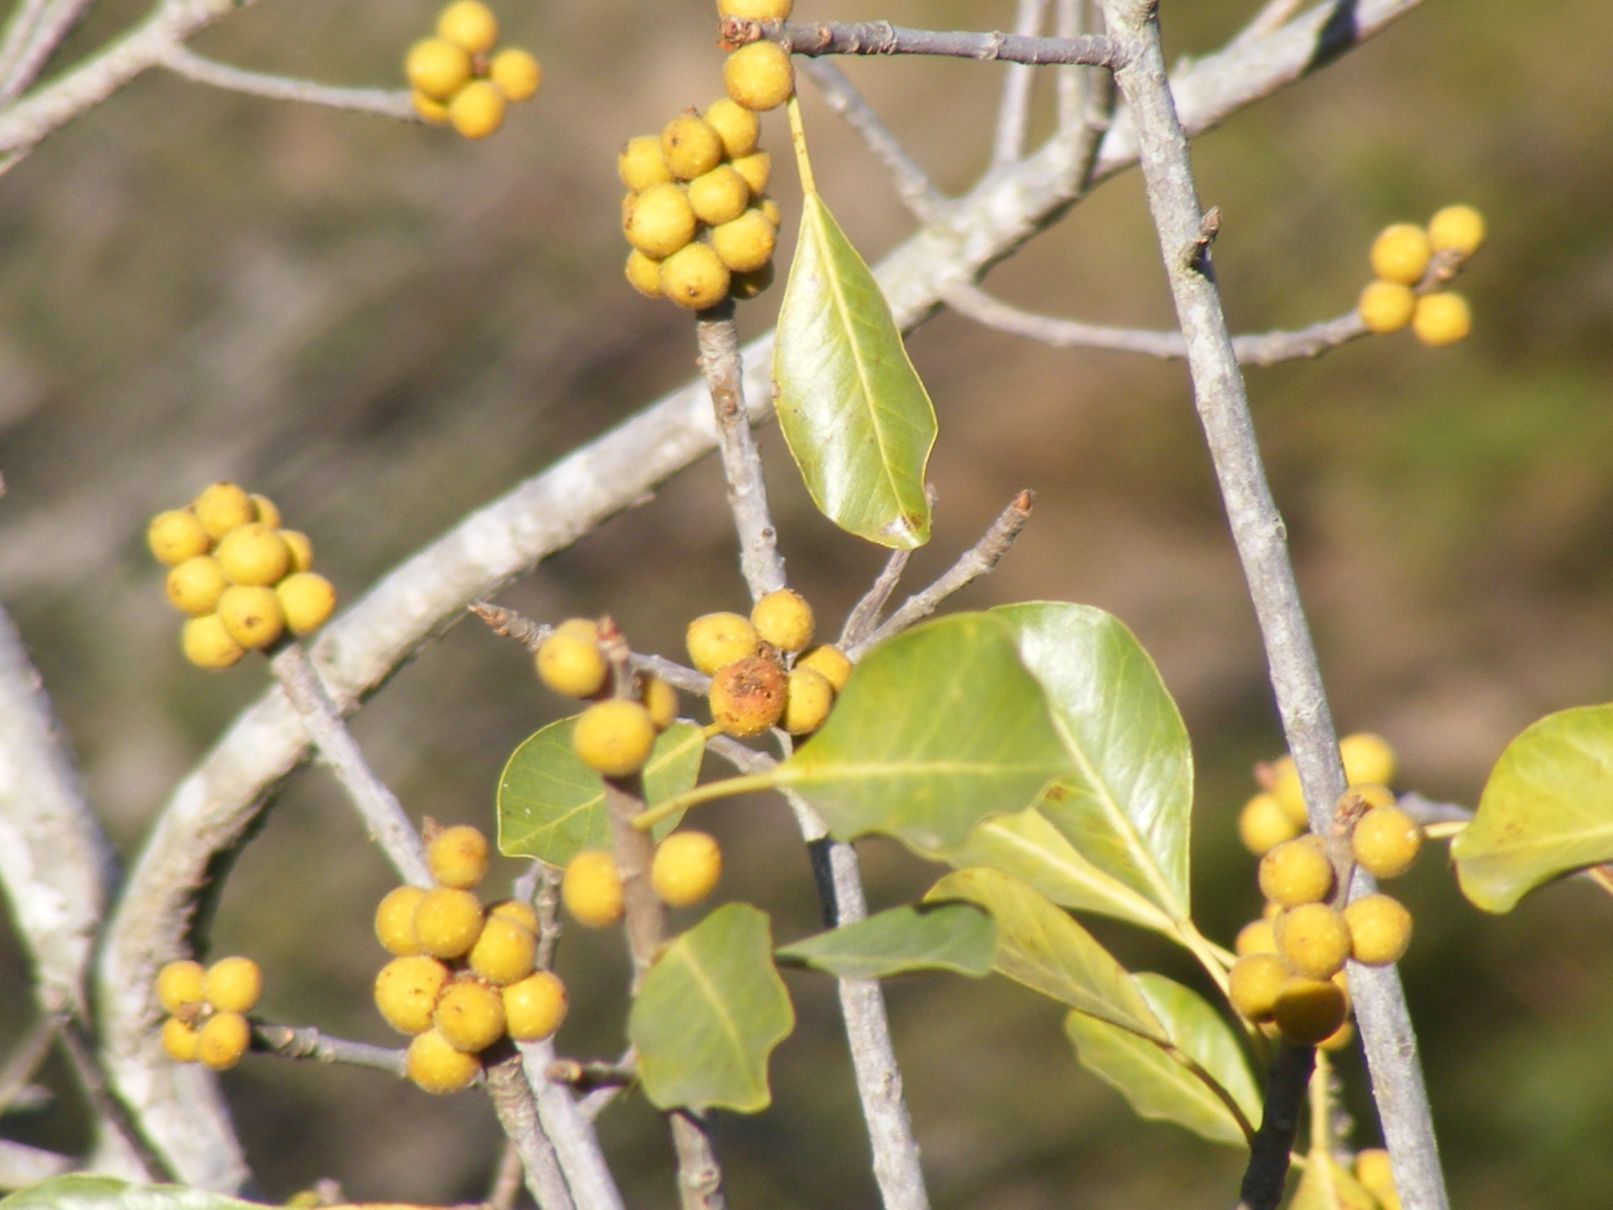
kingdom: Plantae
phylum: Tracheophyta
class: Magnoliopsida
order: Rosales
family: Moraceae
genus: Ficus
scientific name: Ficus petersii
